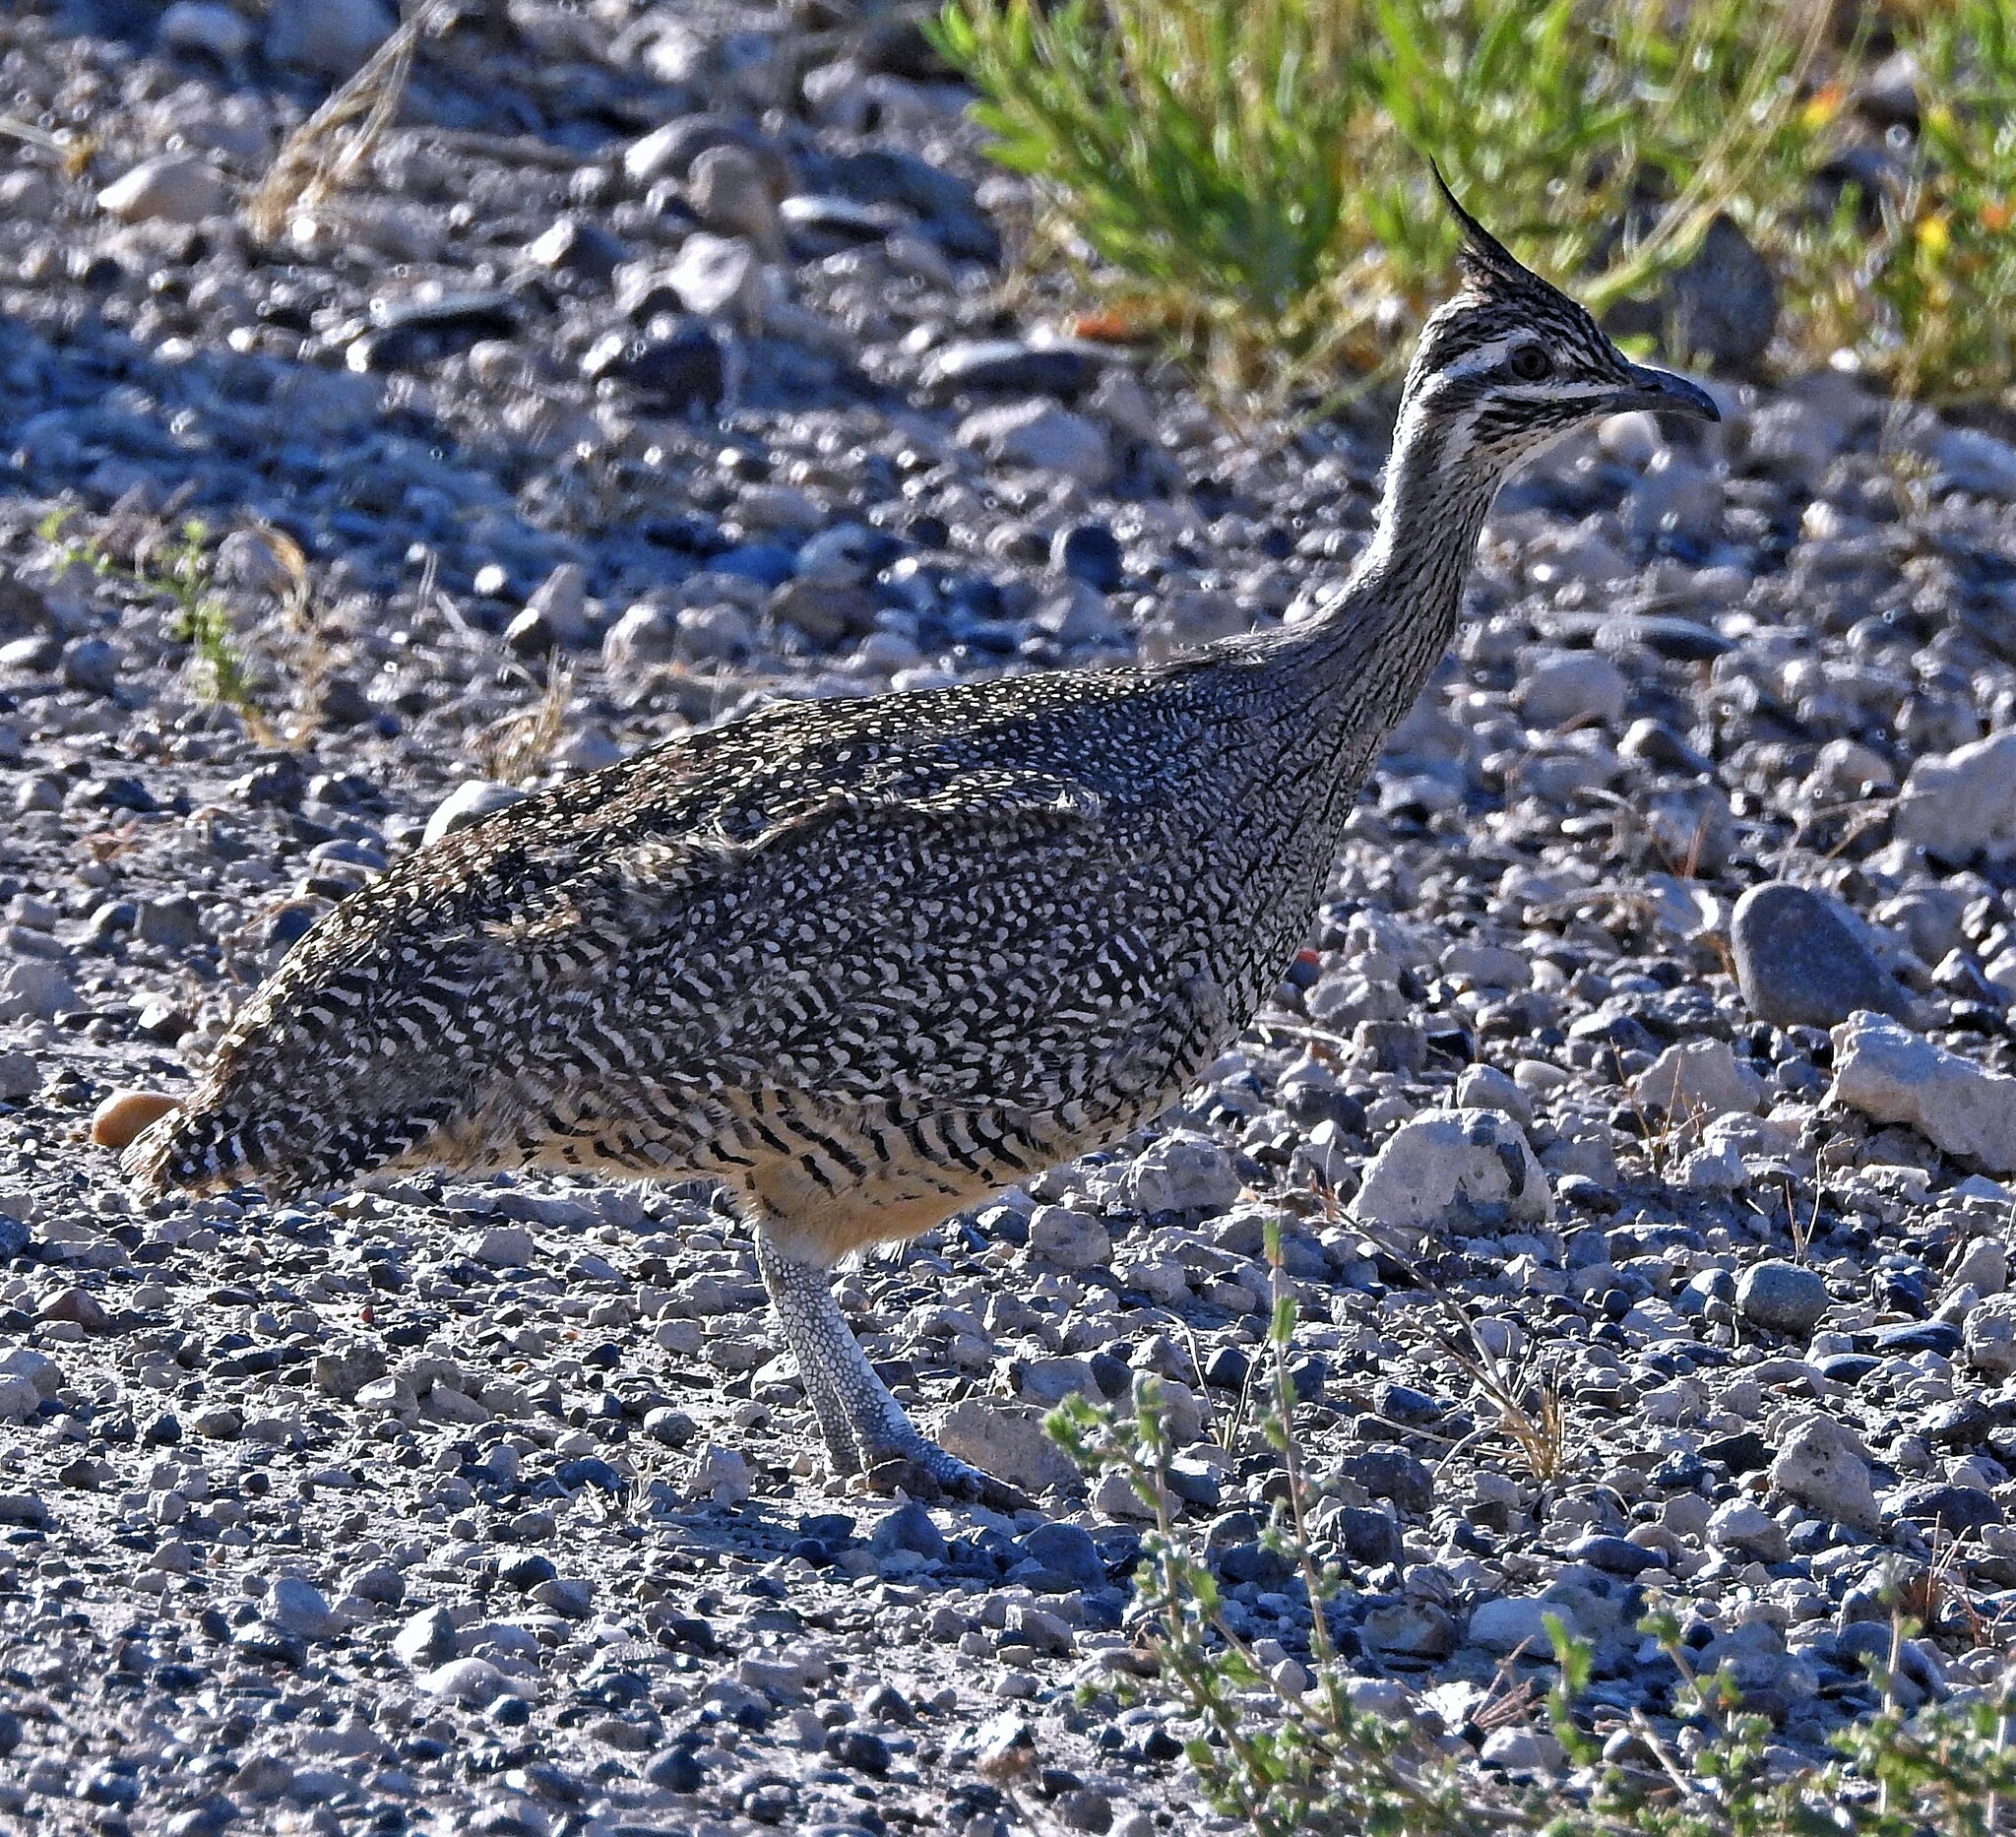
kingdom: Animalia
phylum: Chordata
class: Aves
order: Tinamiformes
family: Tinamidae
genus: Eudromia
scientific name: Eudromia elegans
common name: Elegant crested tinamou
